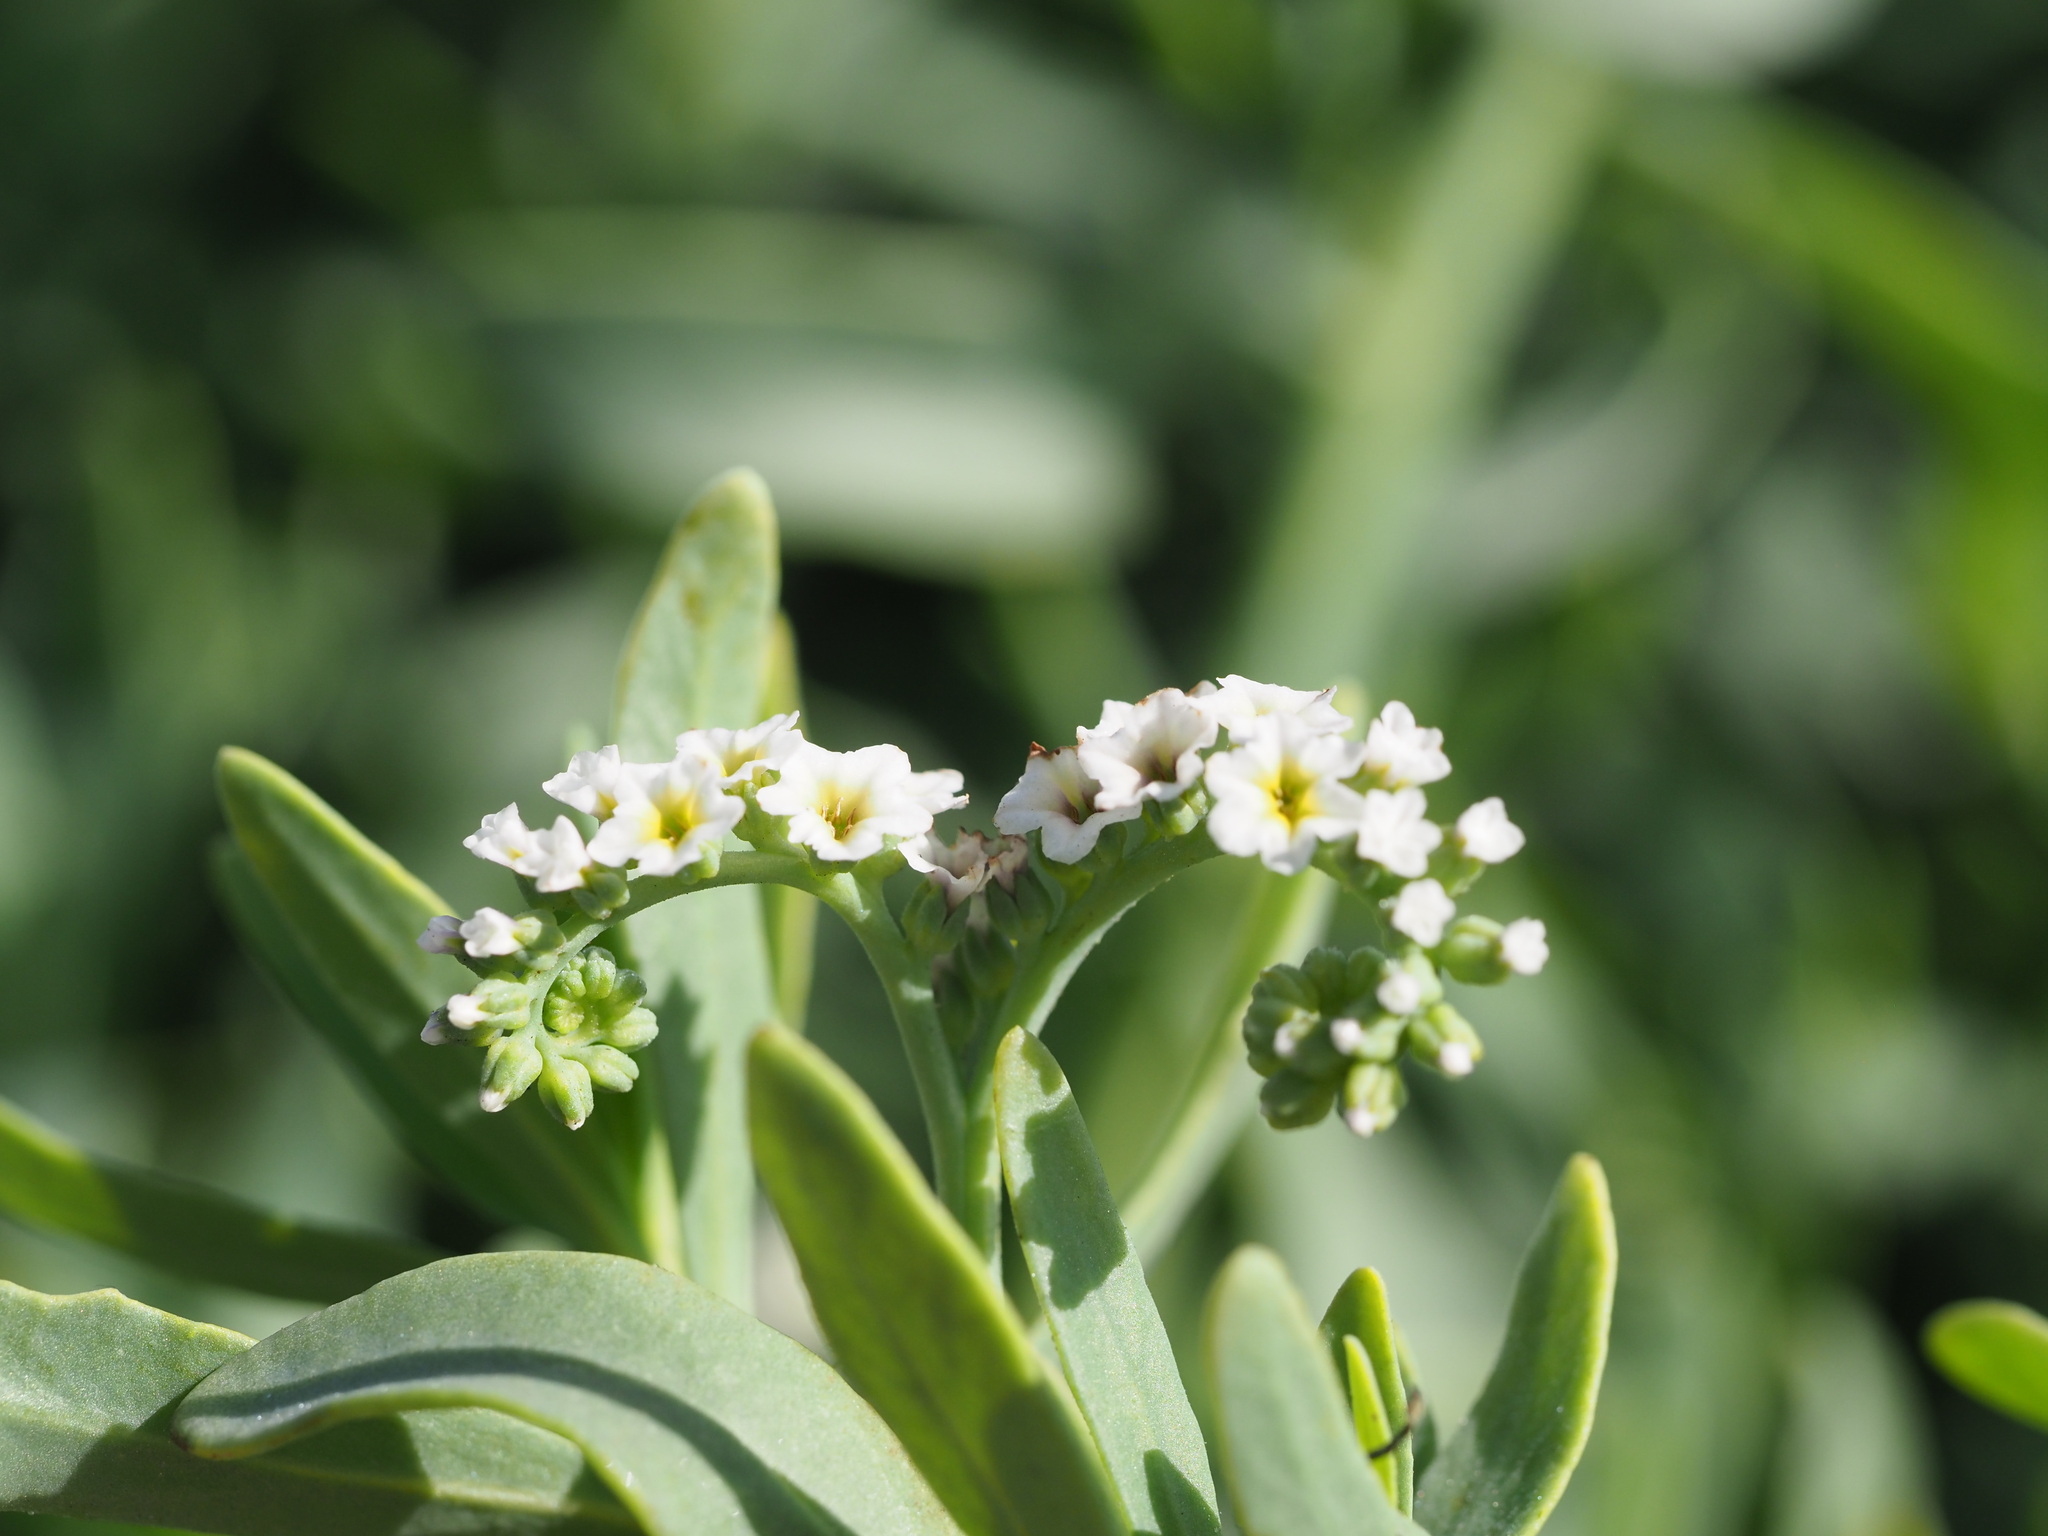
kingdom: Plantae
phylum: Tracheophyta
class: Magnoliopsida
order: Boraginales
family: Heliotropiaceae
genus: Heliotropium
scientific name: Heliotropium curassavicum
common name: Seaside heliotrope
